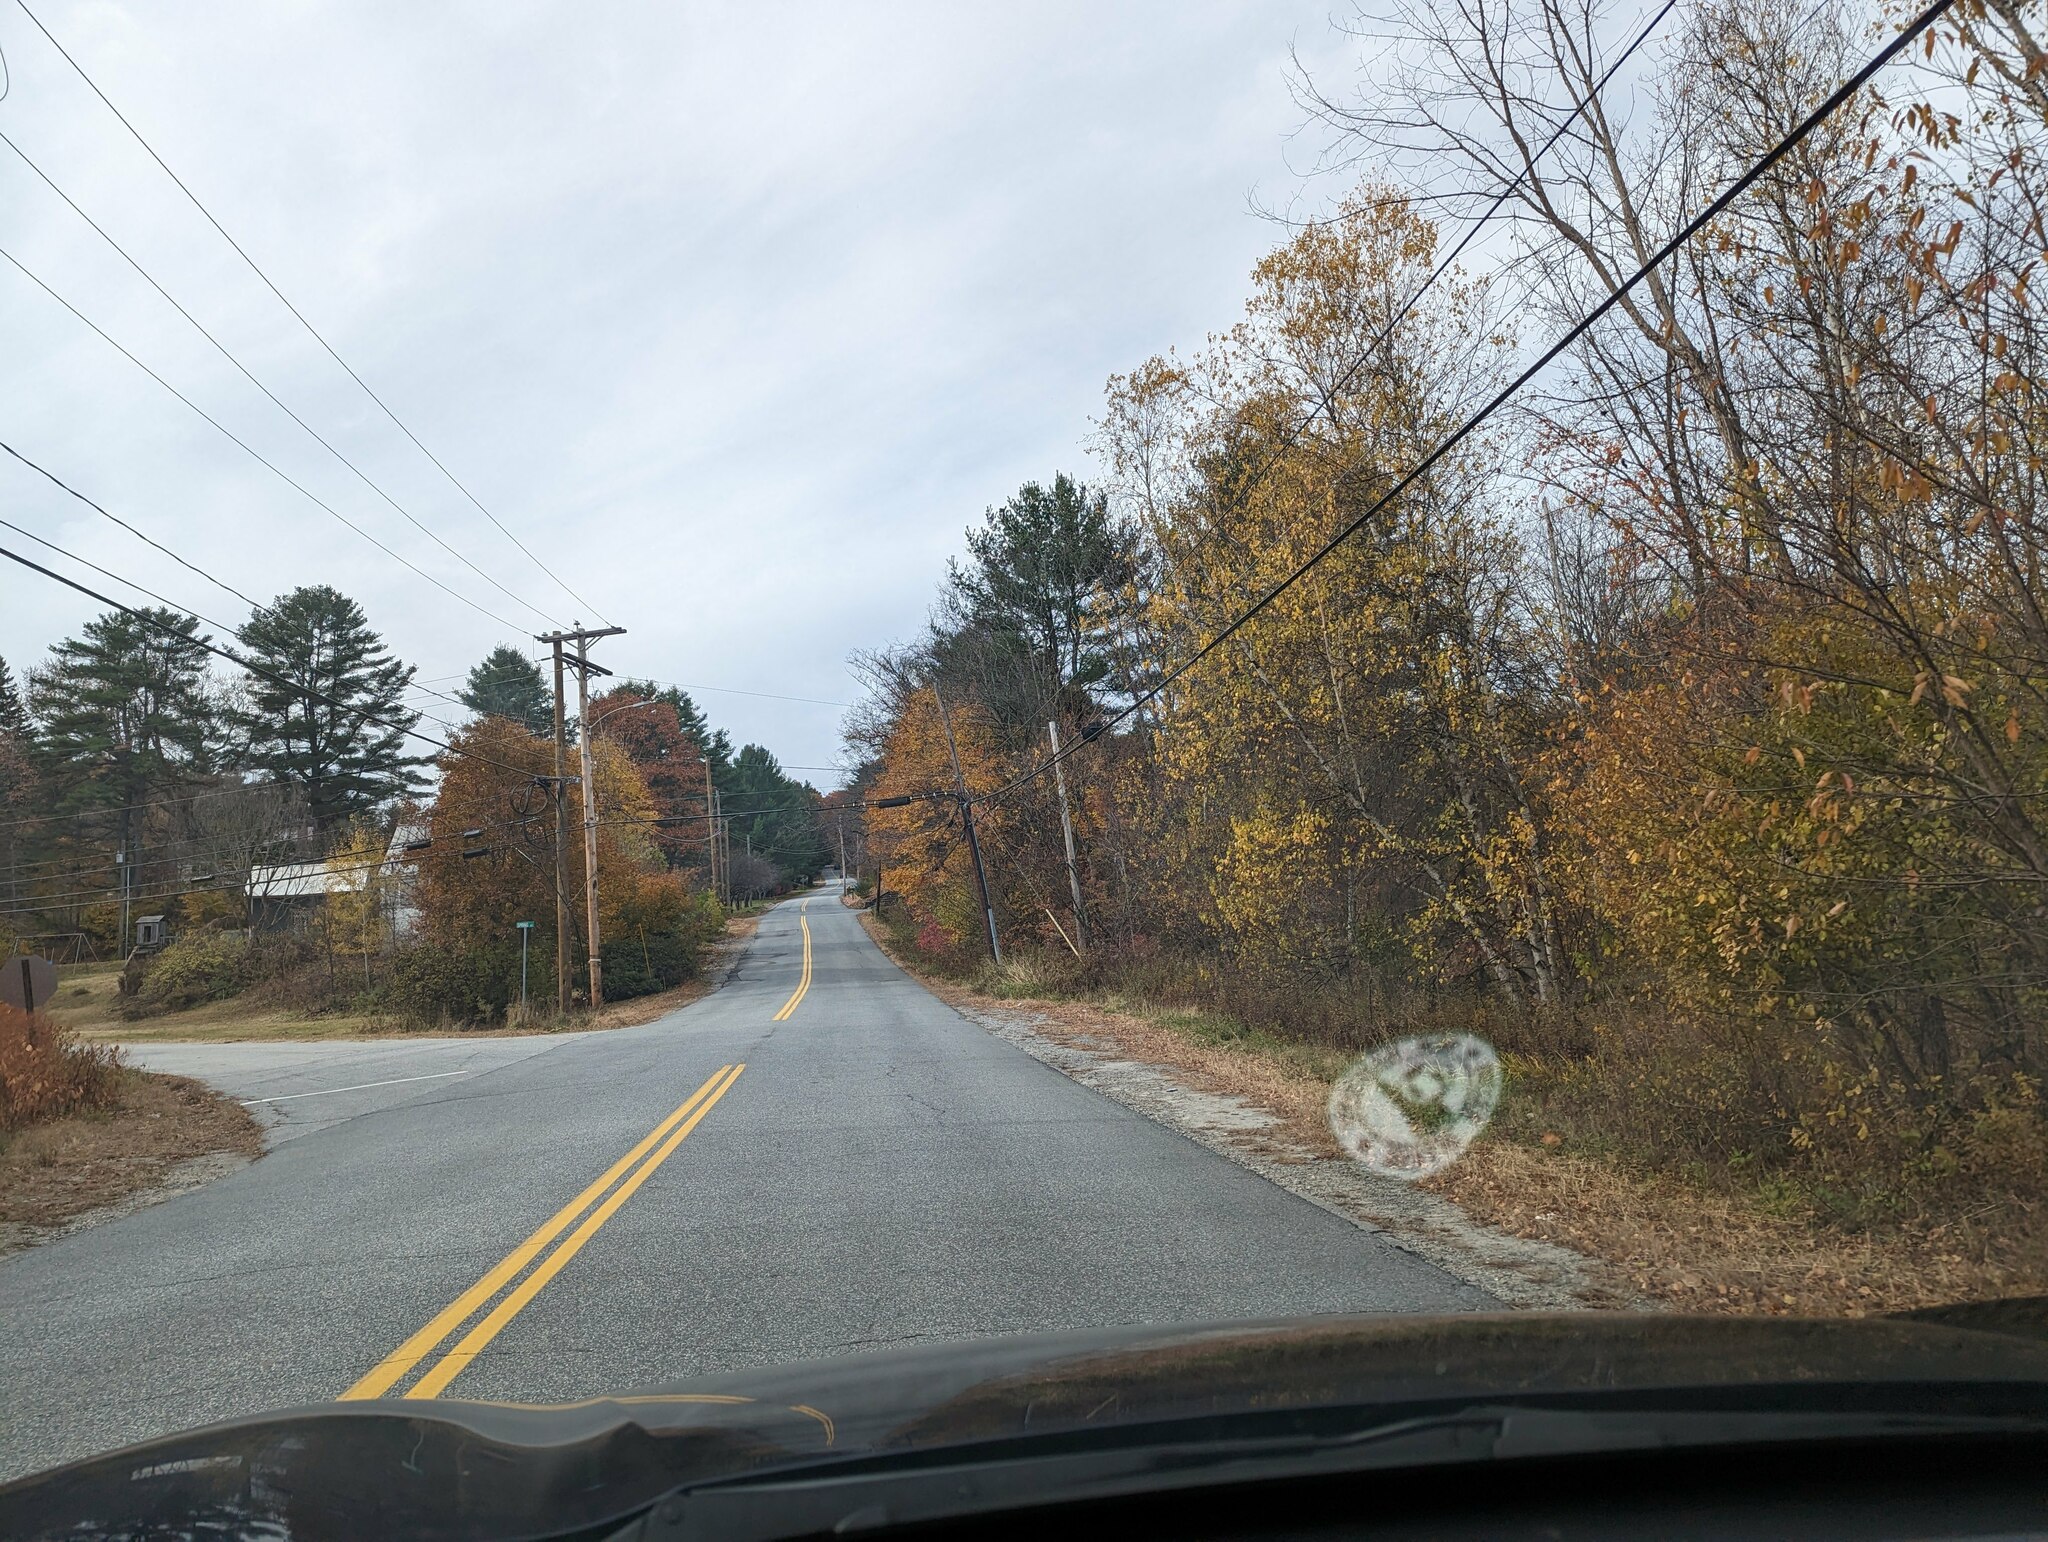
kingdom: Plantae
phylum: Tracheophyta
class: Pinopsida
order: Pinales
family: Pinaceae
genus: Pinus
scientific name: Pinus strobus
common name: Weymouth pine
